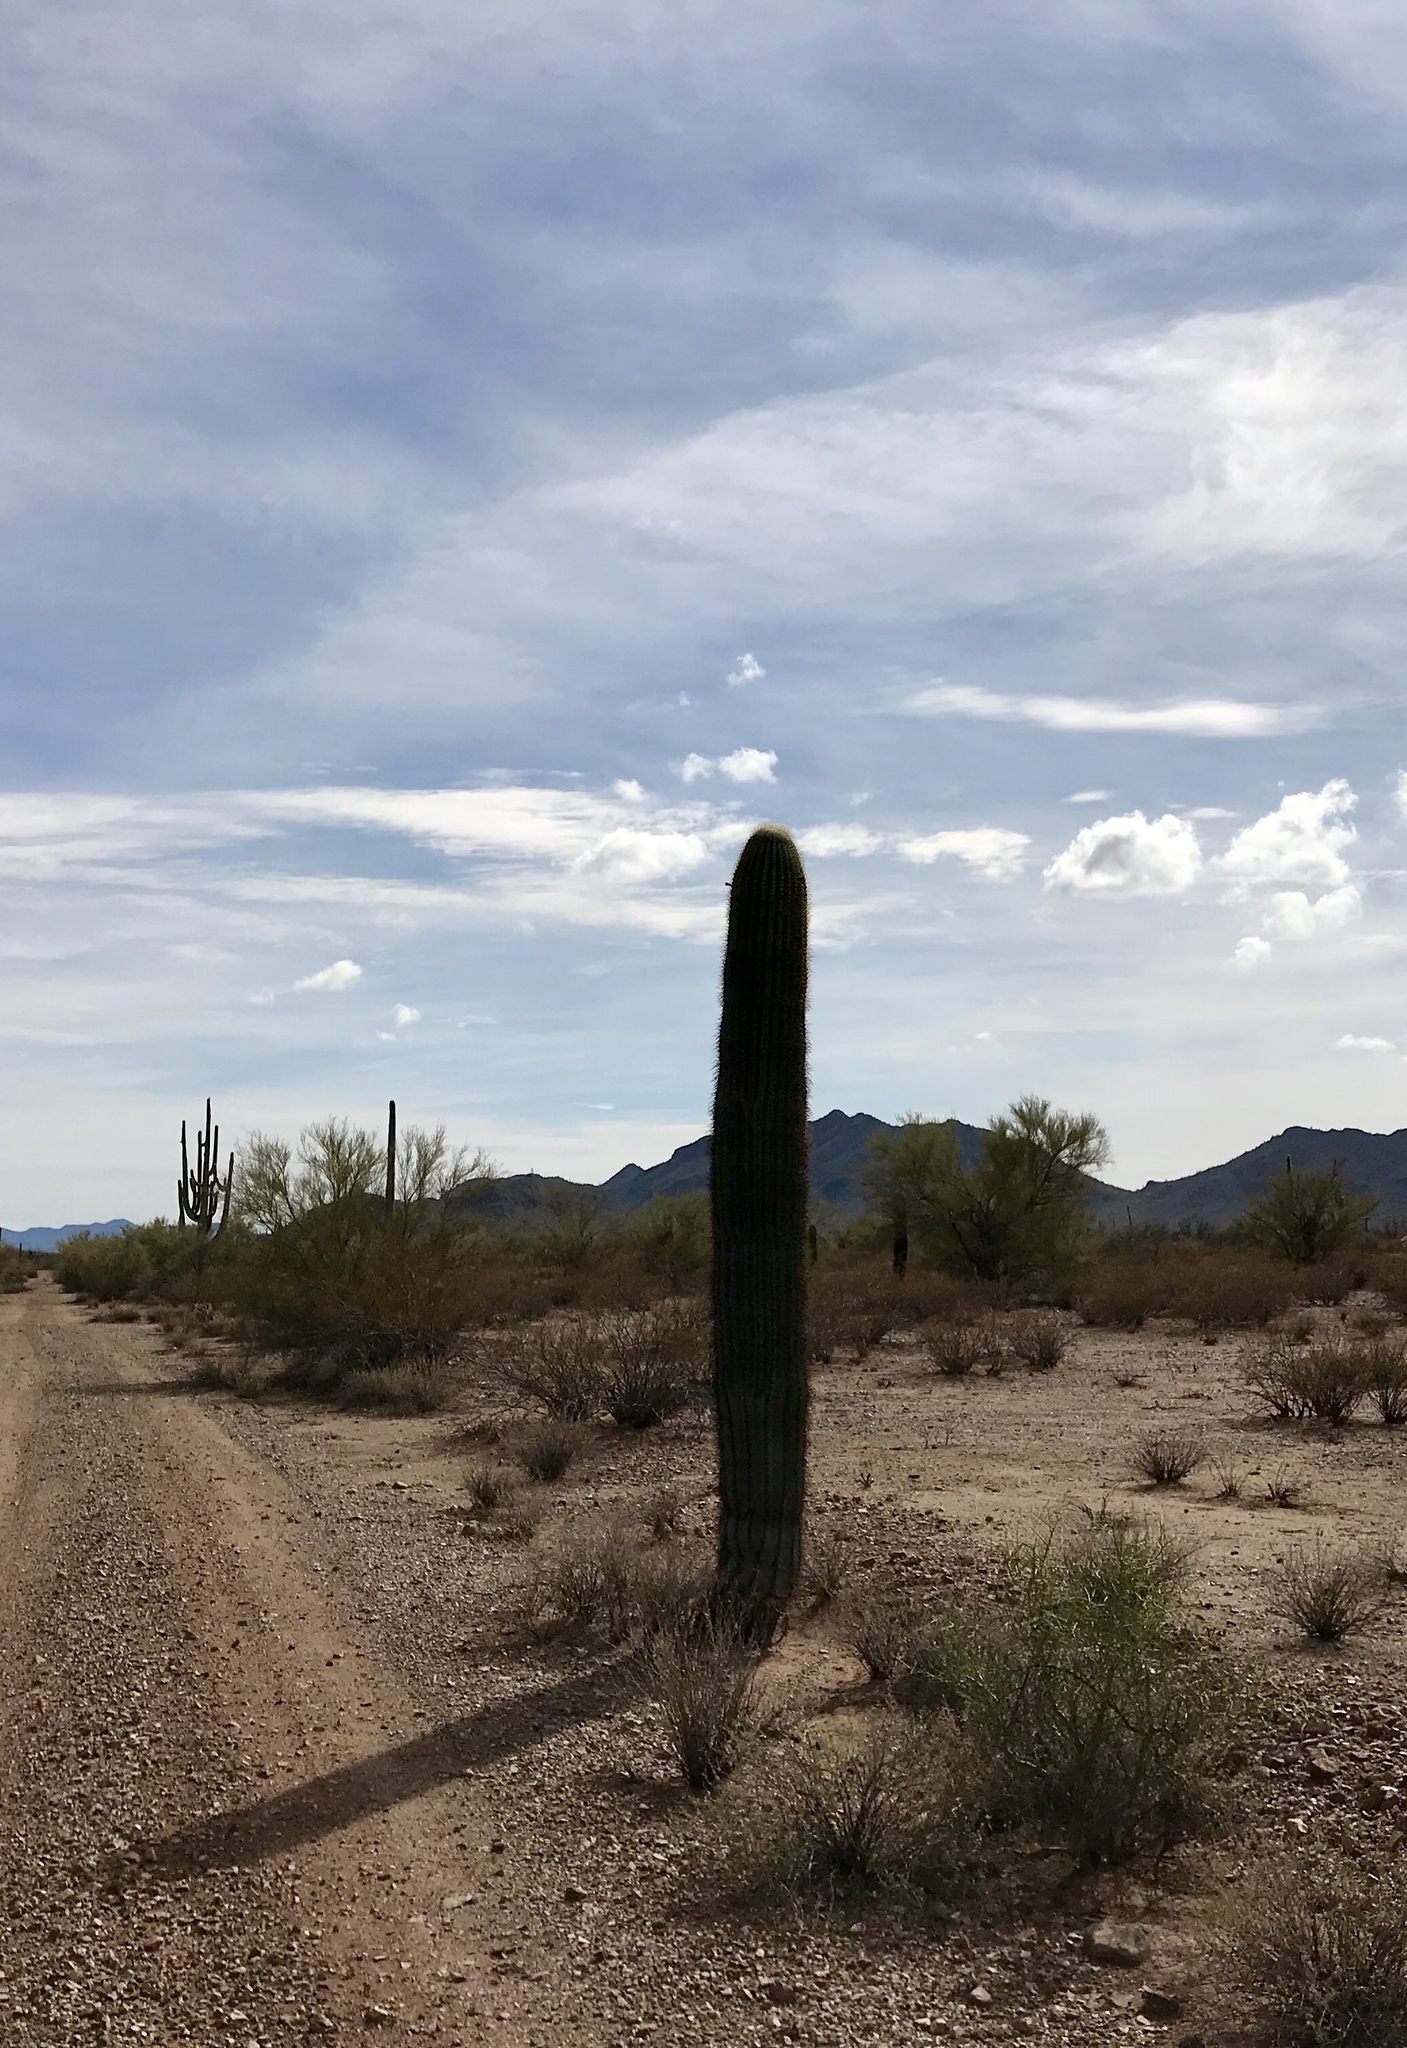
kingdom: Plantae
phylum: Tracheophyta
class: Magnoliopsida
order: Caryophyllales
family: Cactaceae
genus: Carnegiea
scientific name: Carnegiea gigantea
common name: Saguaro
